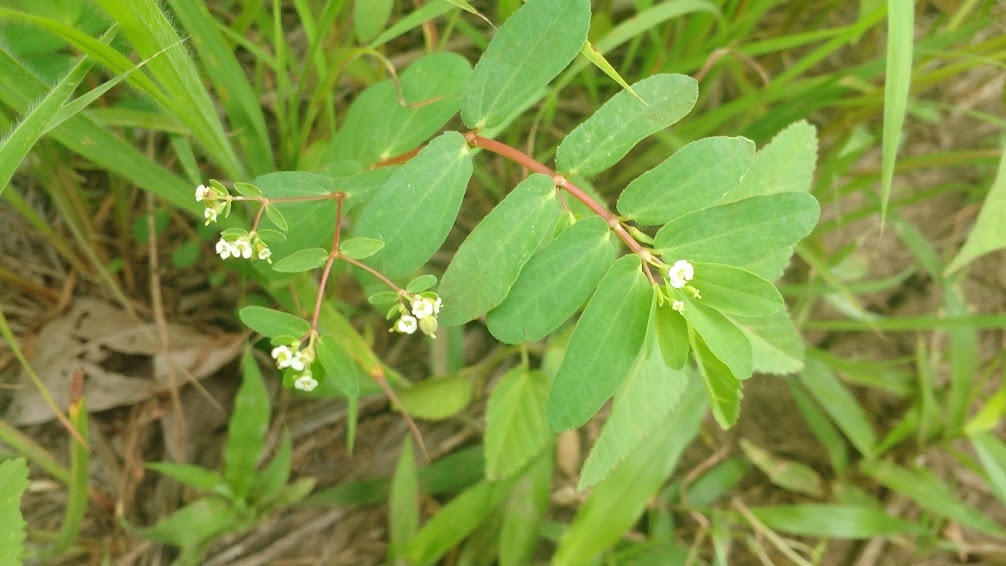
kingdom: Plantae
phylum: Tracheophyta
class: Magnoliopsida
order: Malpighiales
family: Euphorbiaceae
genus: Euphorbia
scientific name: Euphorbia hyssopifolia
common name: Hyssopleaf sandmat
